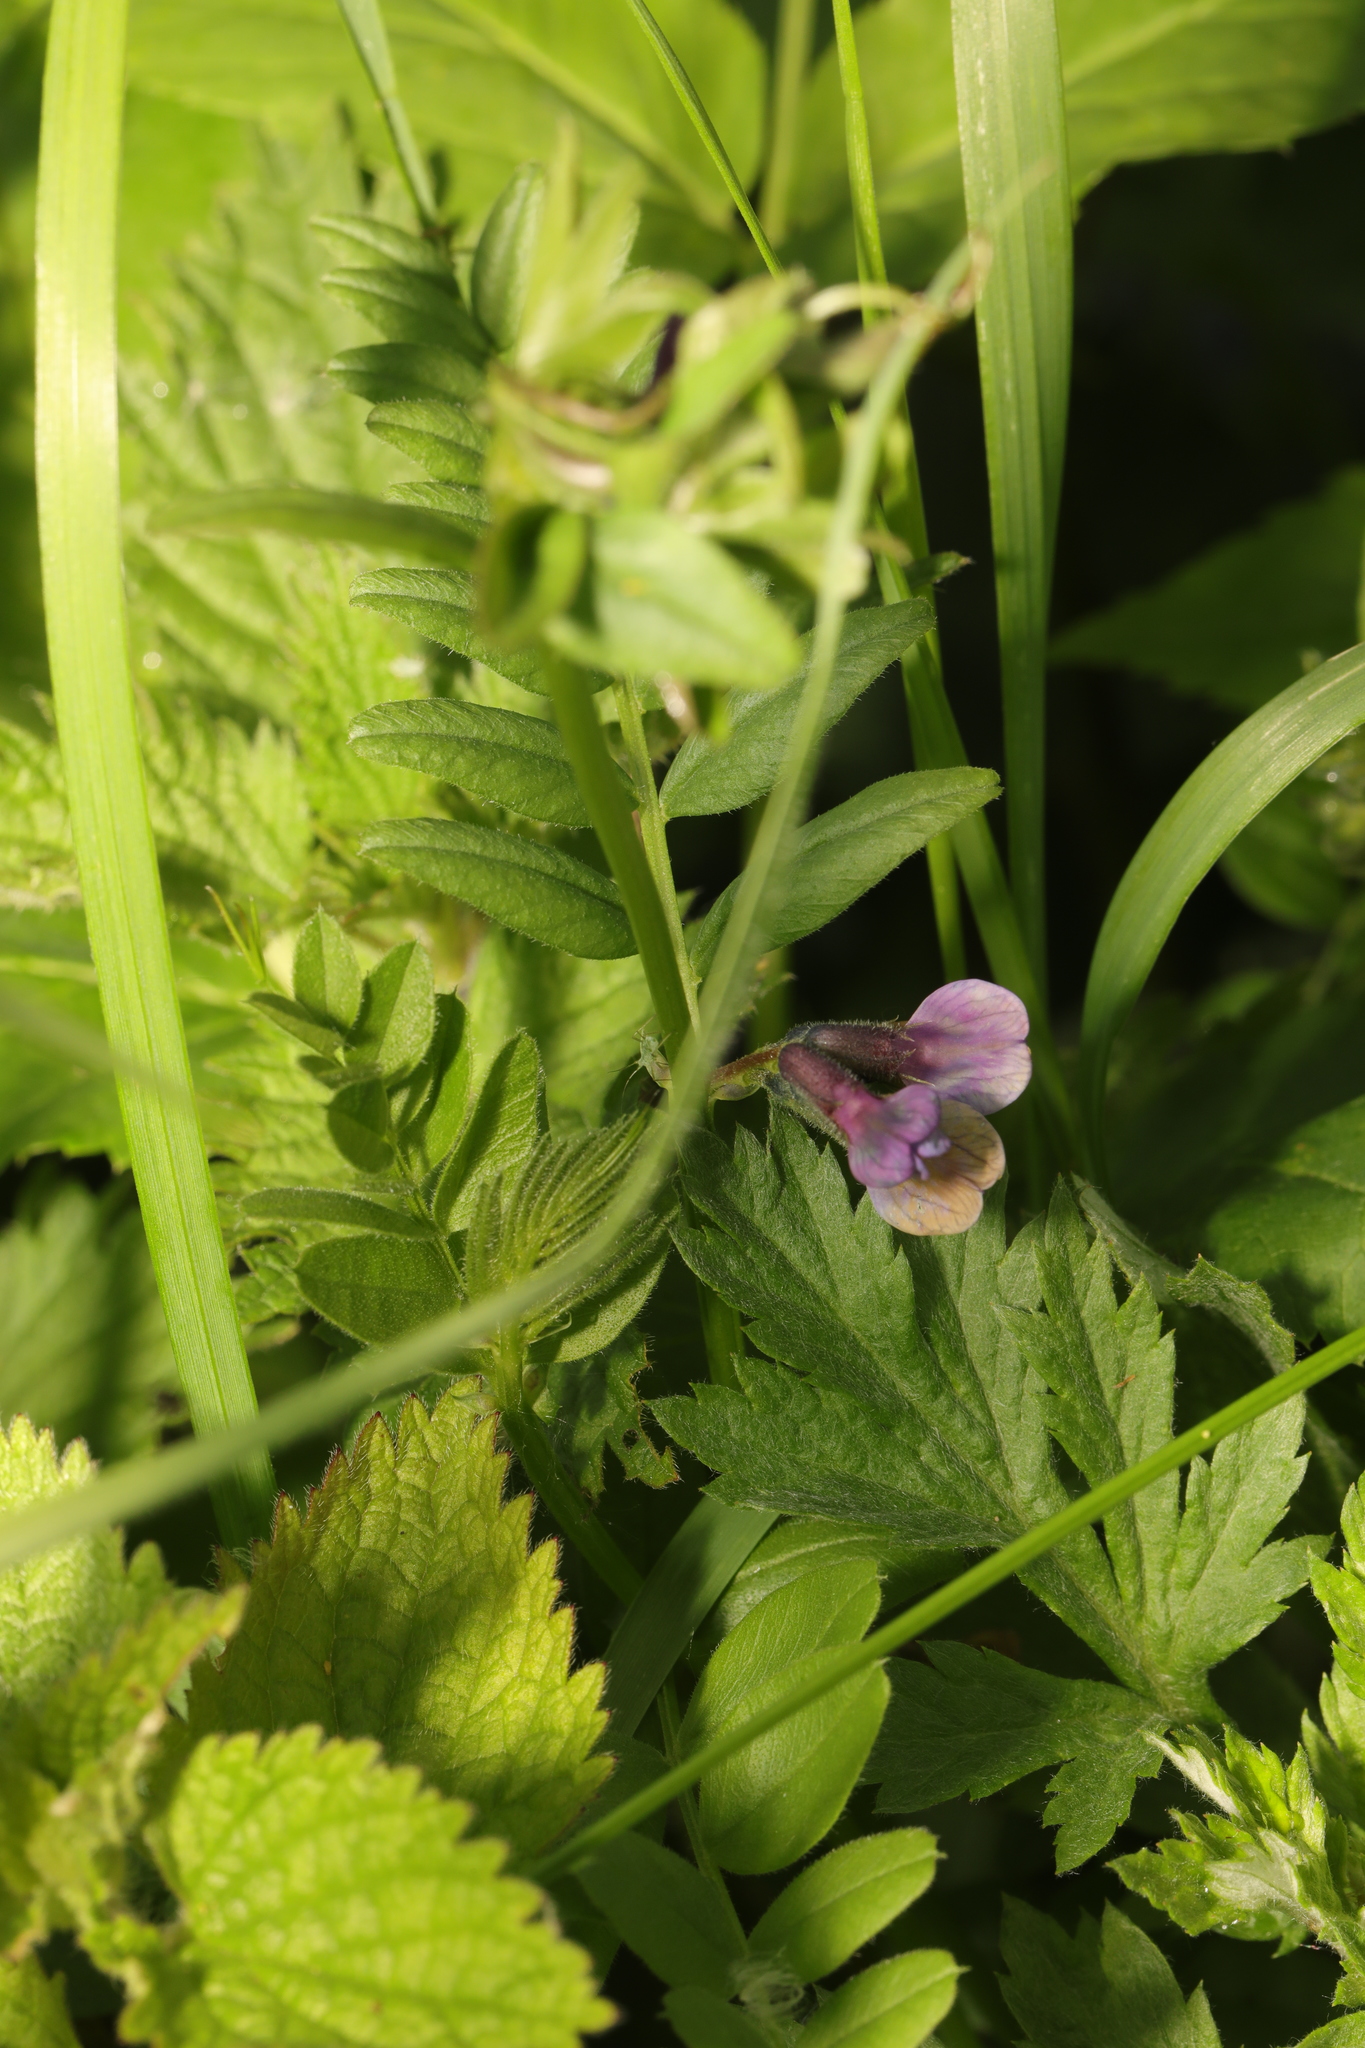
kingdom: Plantae
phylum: Tracheophyta
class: Magnoliopsida
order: Fabales
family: Fabaceae
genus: Vicia
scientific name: Vicia sepium
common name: Bush vetch
